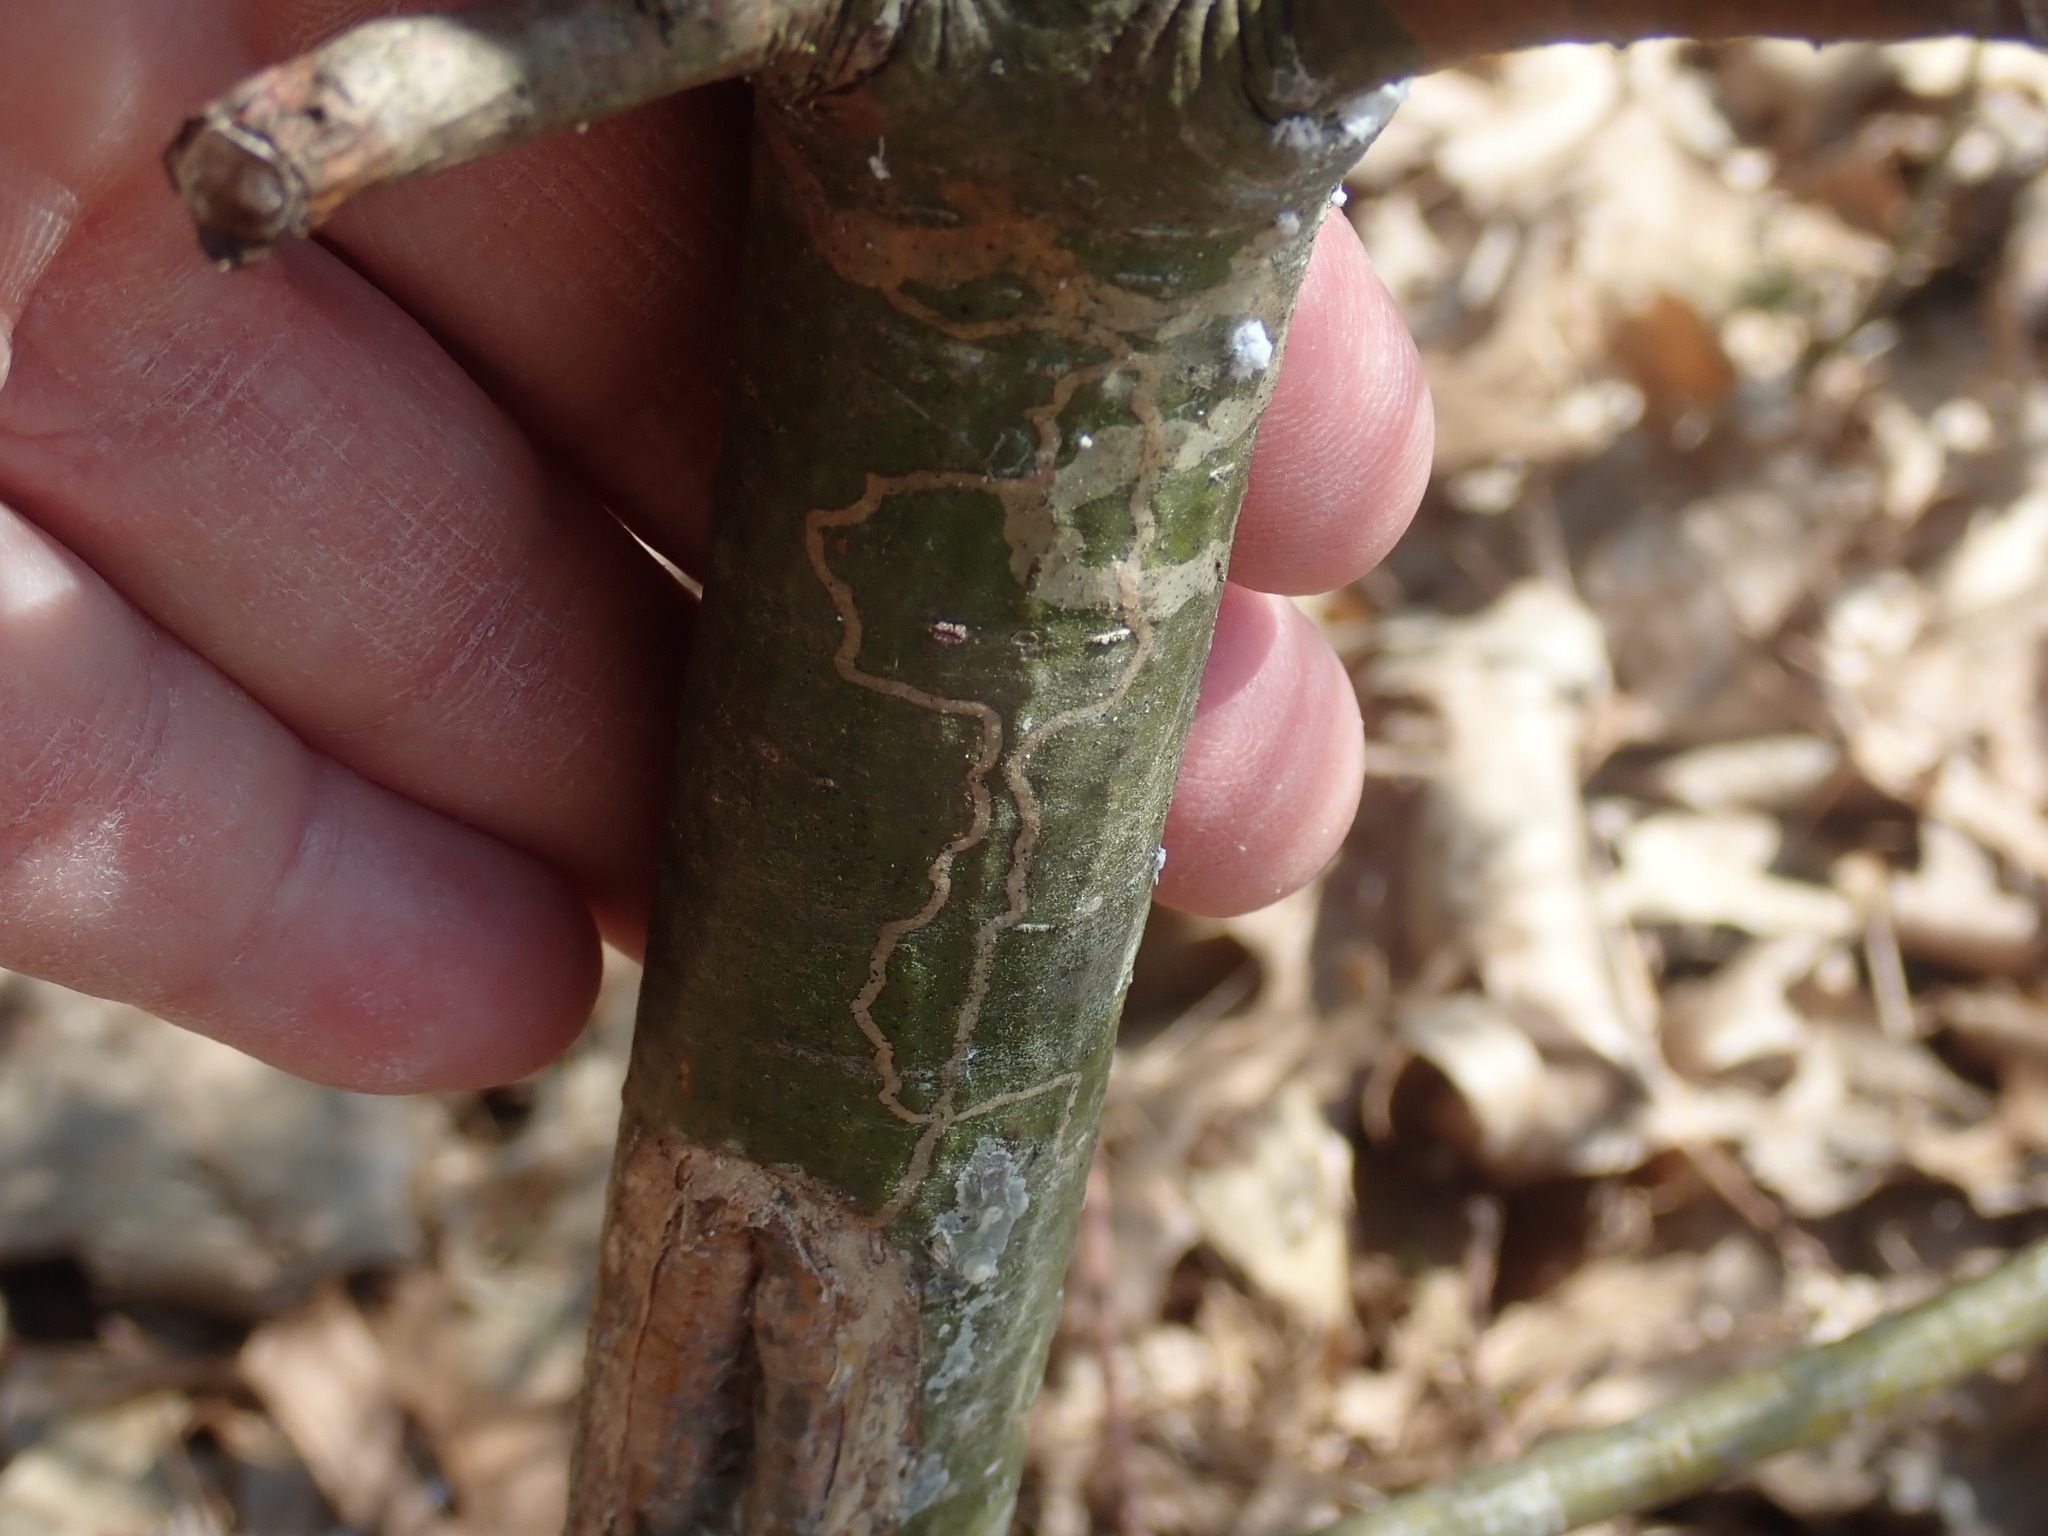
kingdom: Animalia
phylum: Arthropoda
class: Insecta
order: Lepidoptera
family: Gracillariidae
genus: Marmara
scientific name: Marmara fasciella
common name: White pine barkminer moth
